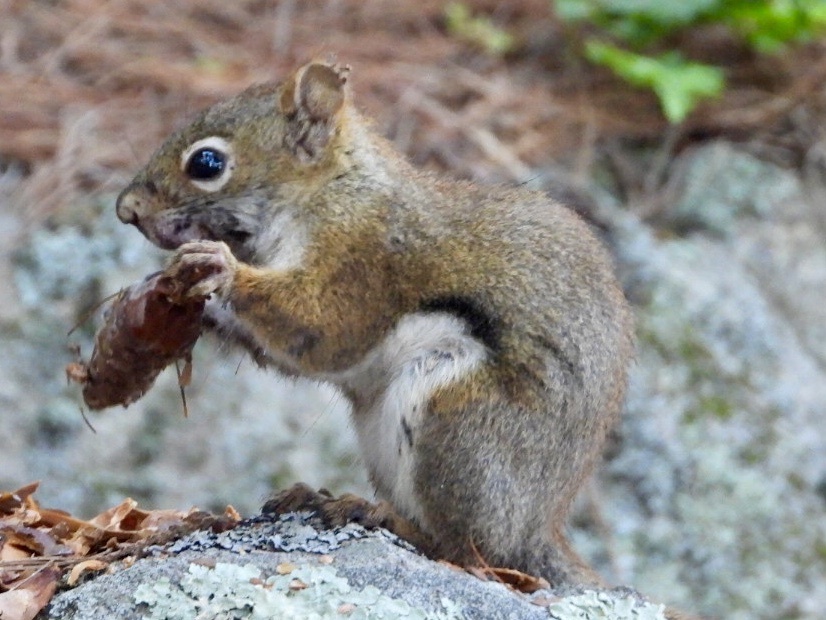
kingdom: Animalia
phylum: Chordata
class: Mammalia
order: Rodentia
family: Sciuridae
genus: Tamiasciurus
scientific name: Tamiasciurus hudsonicus
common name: Red squirrel
